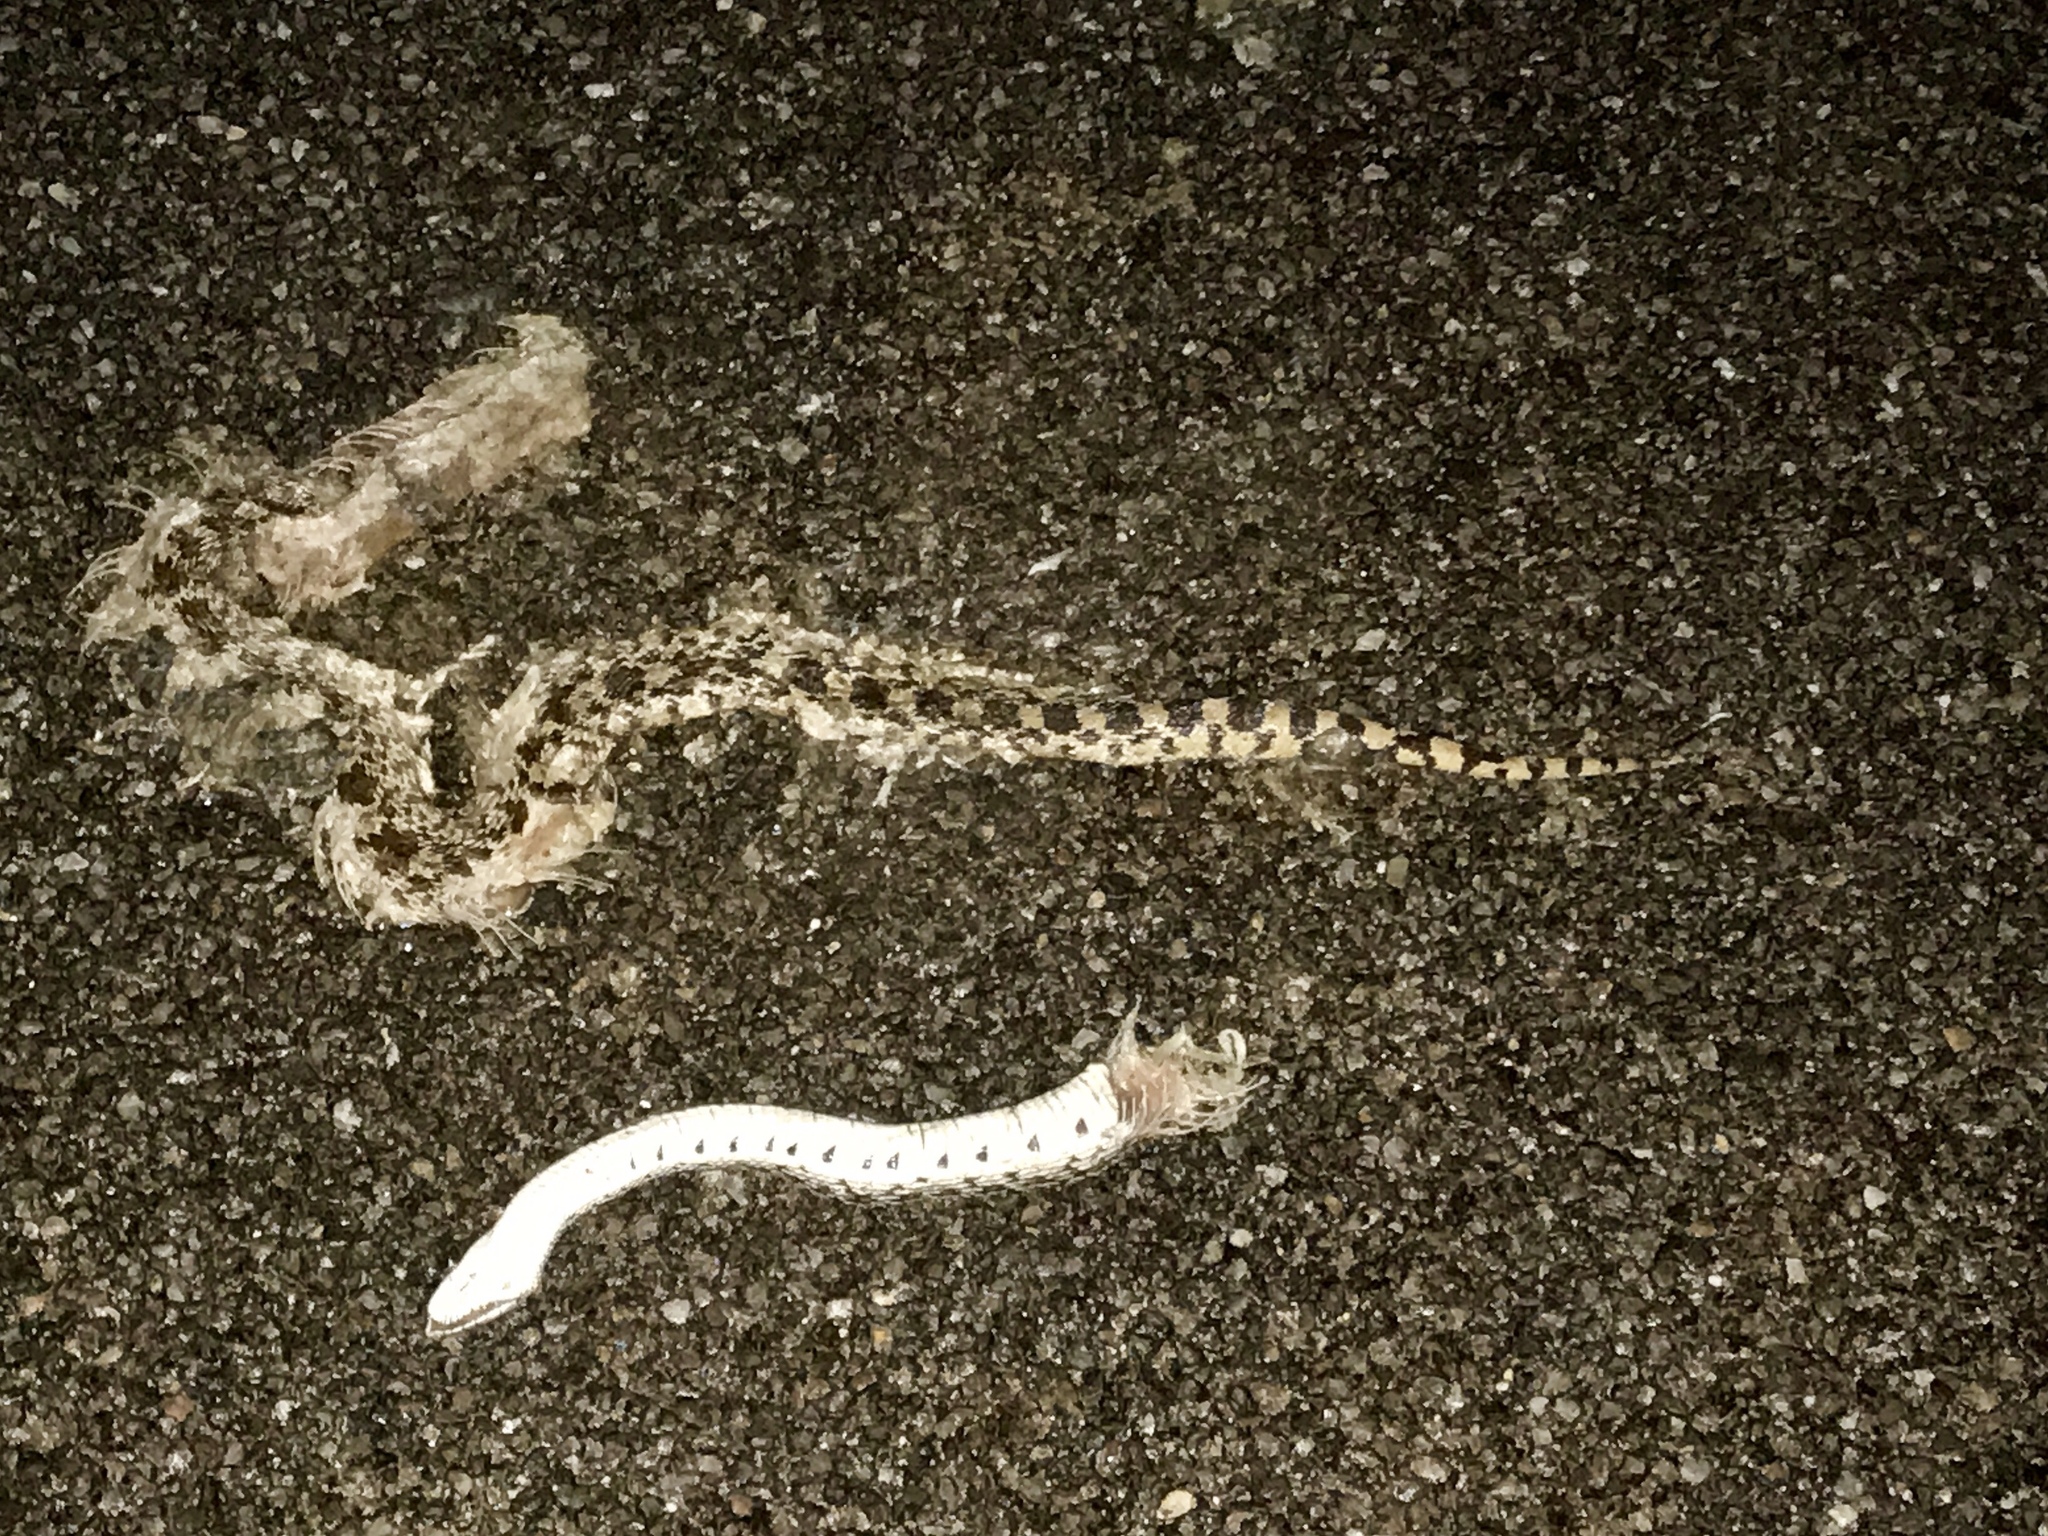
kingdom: Animalia
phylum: Chordata
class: Squamata
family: Colubridae
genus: Pituophis
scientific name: Pituophis catenifer
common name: Gopher snake
